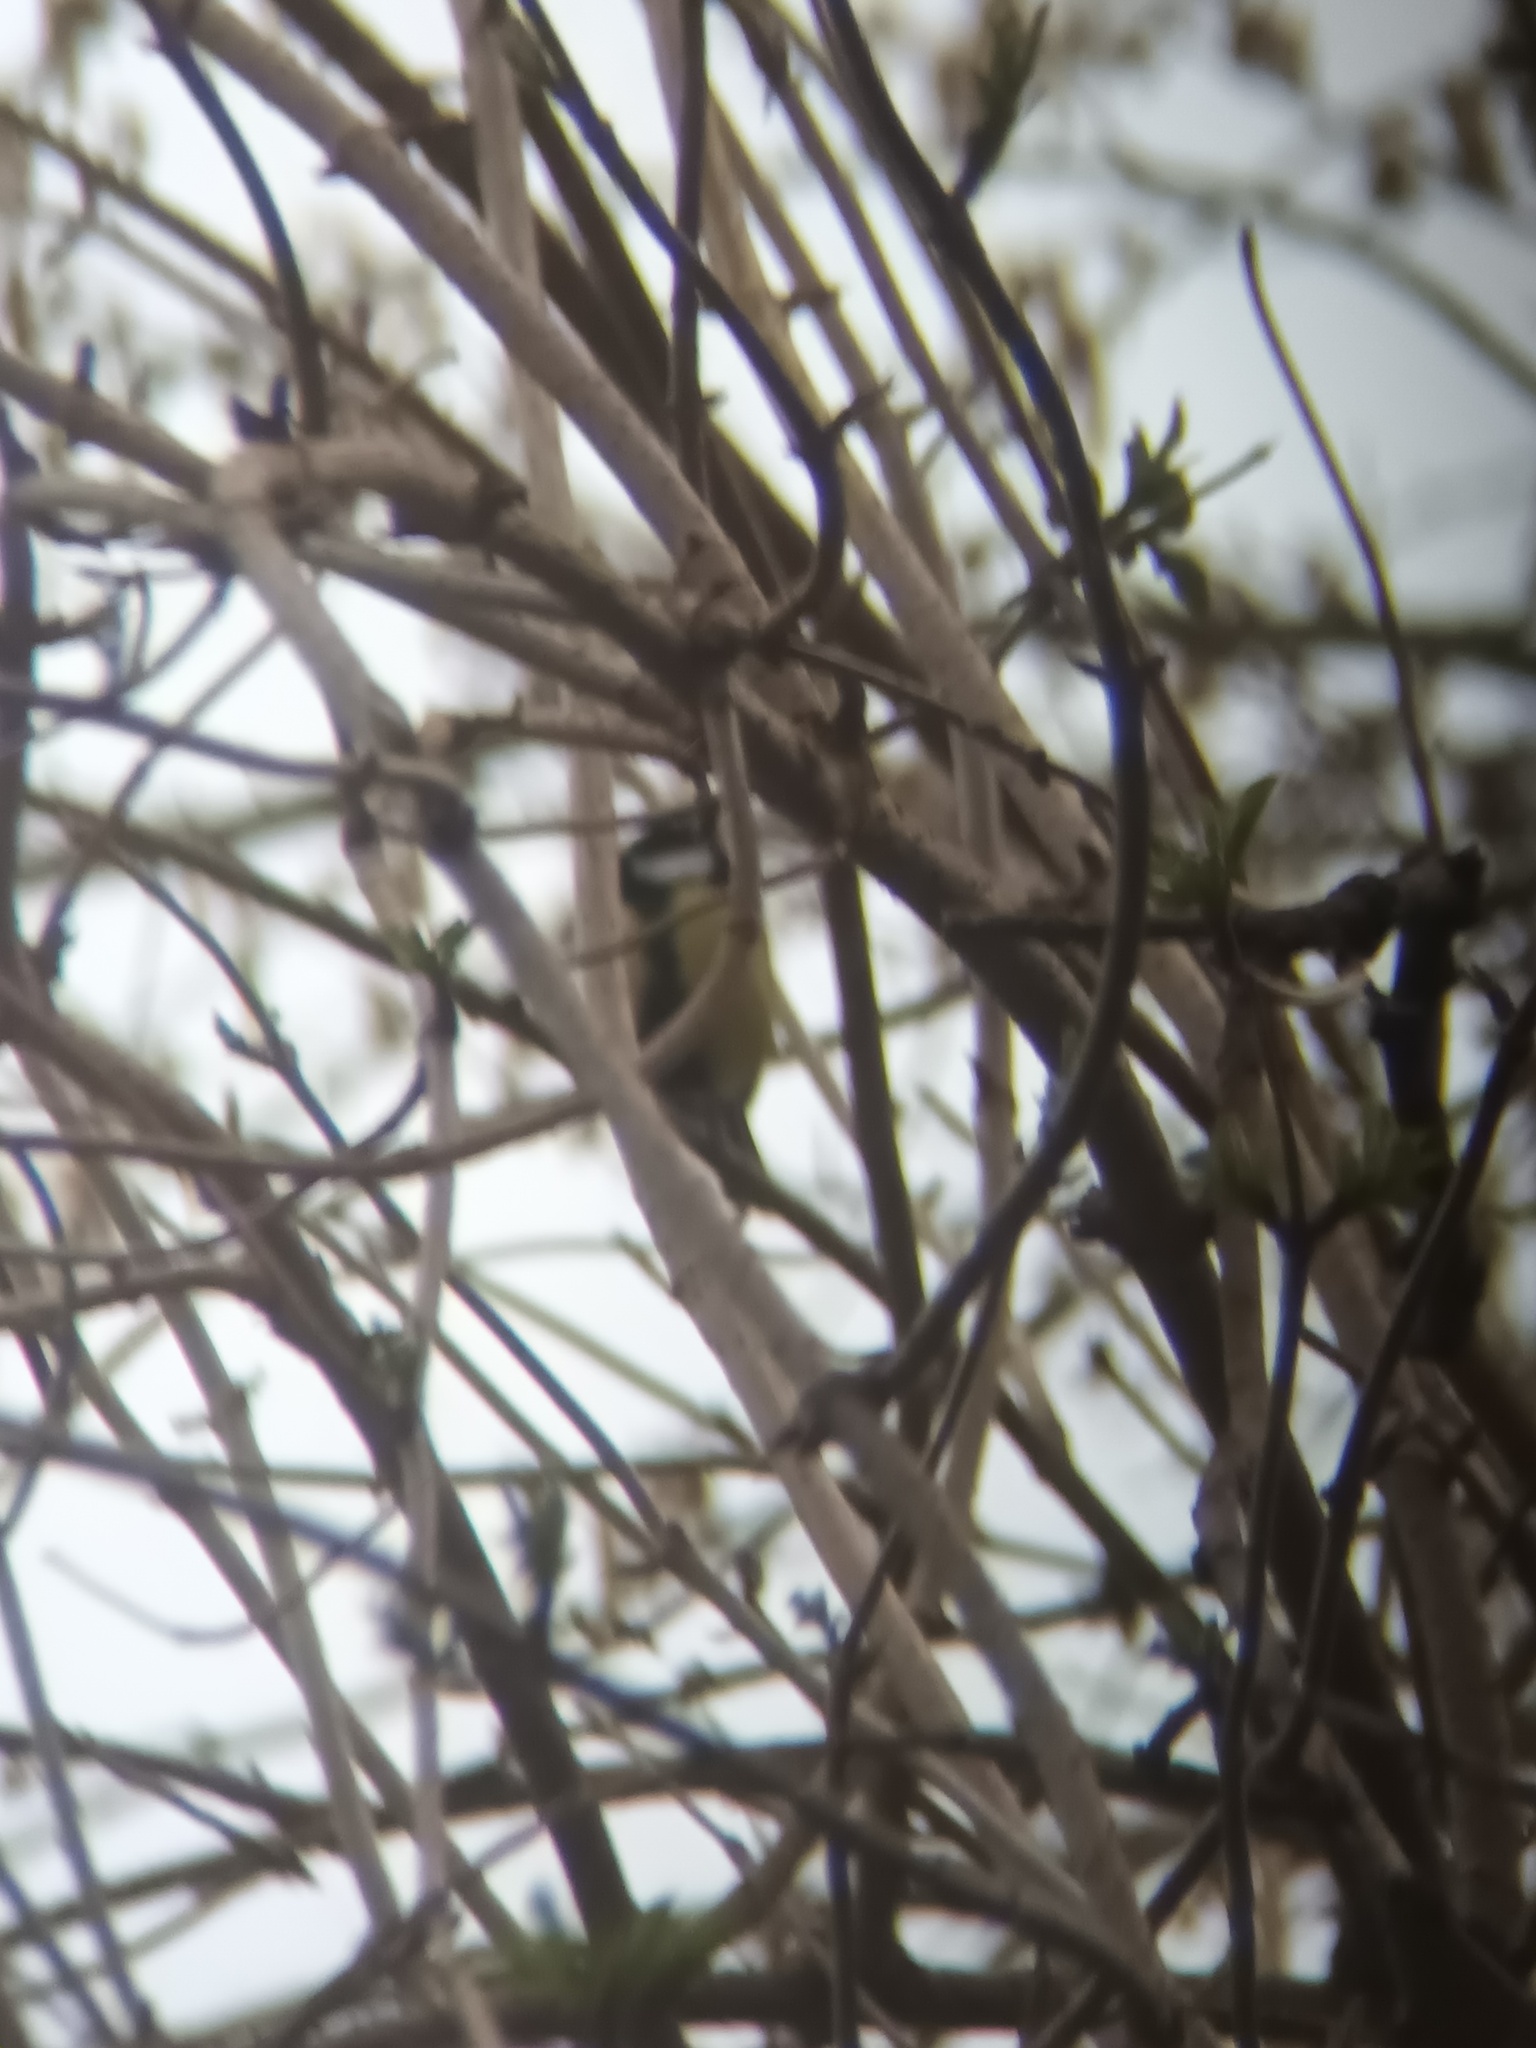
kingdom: Animalia
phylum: Chordata
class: Aves
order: Passeriformes
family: Paridae
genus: Parus
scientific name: Parus major
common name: Great tit
